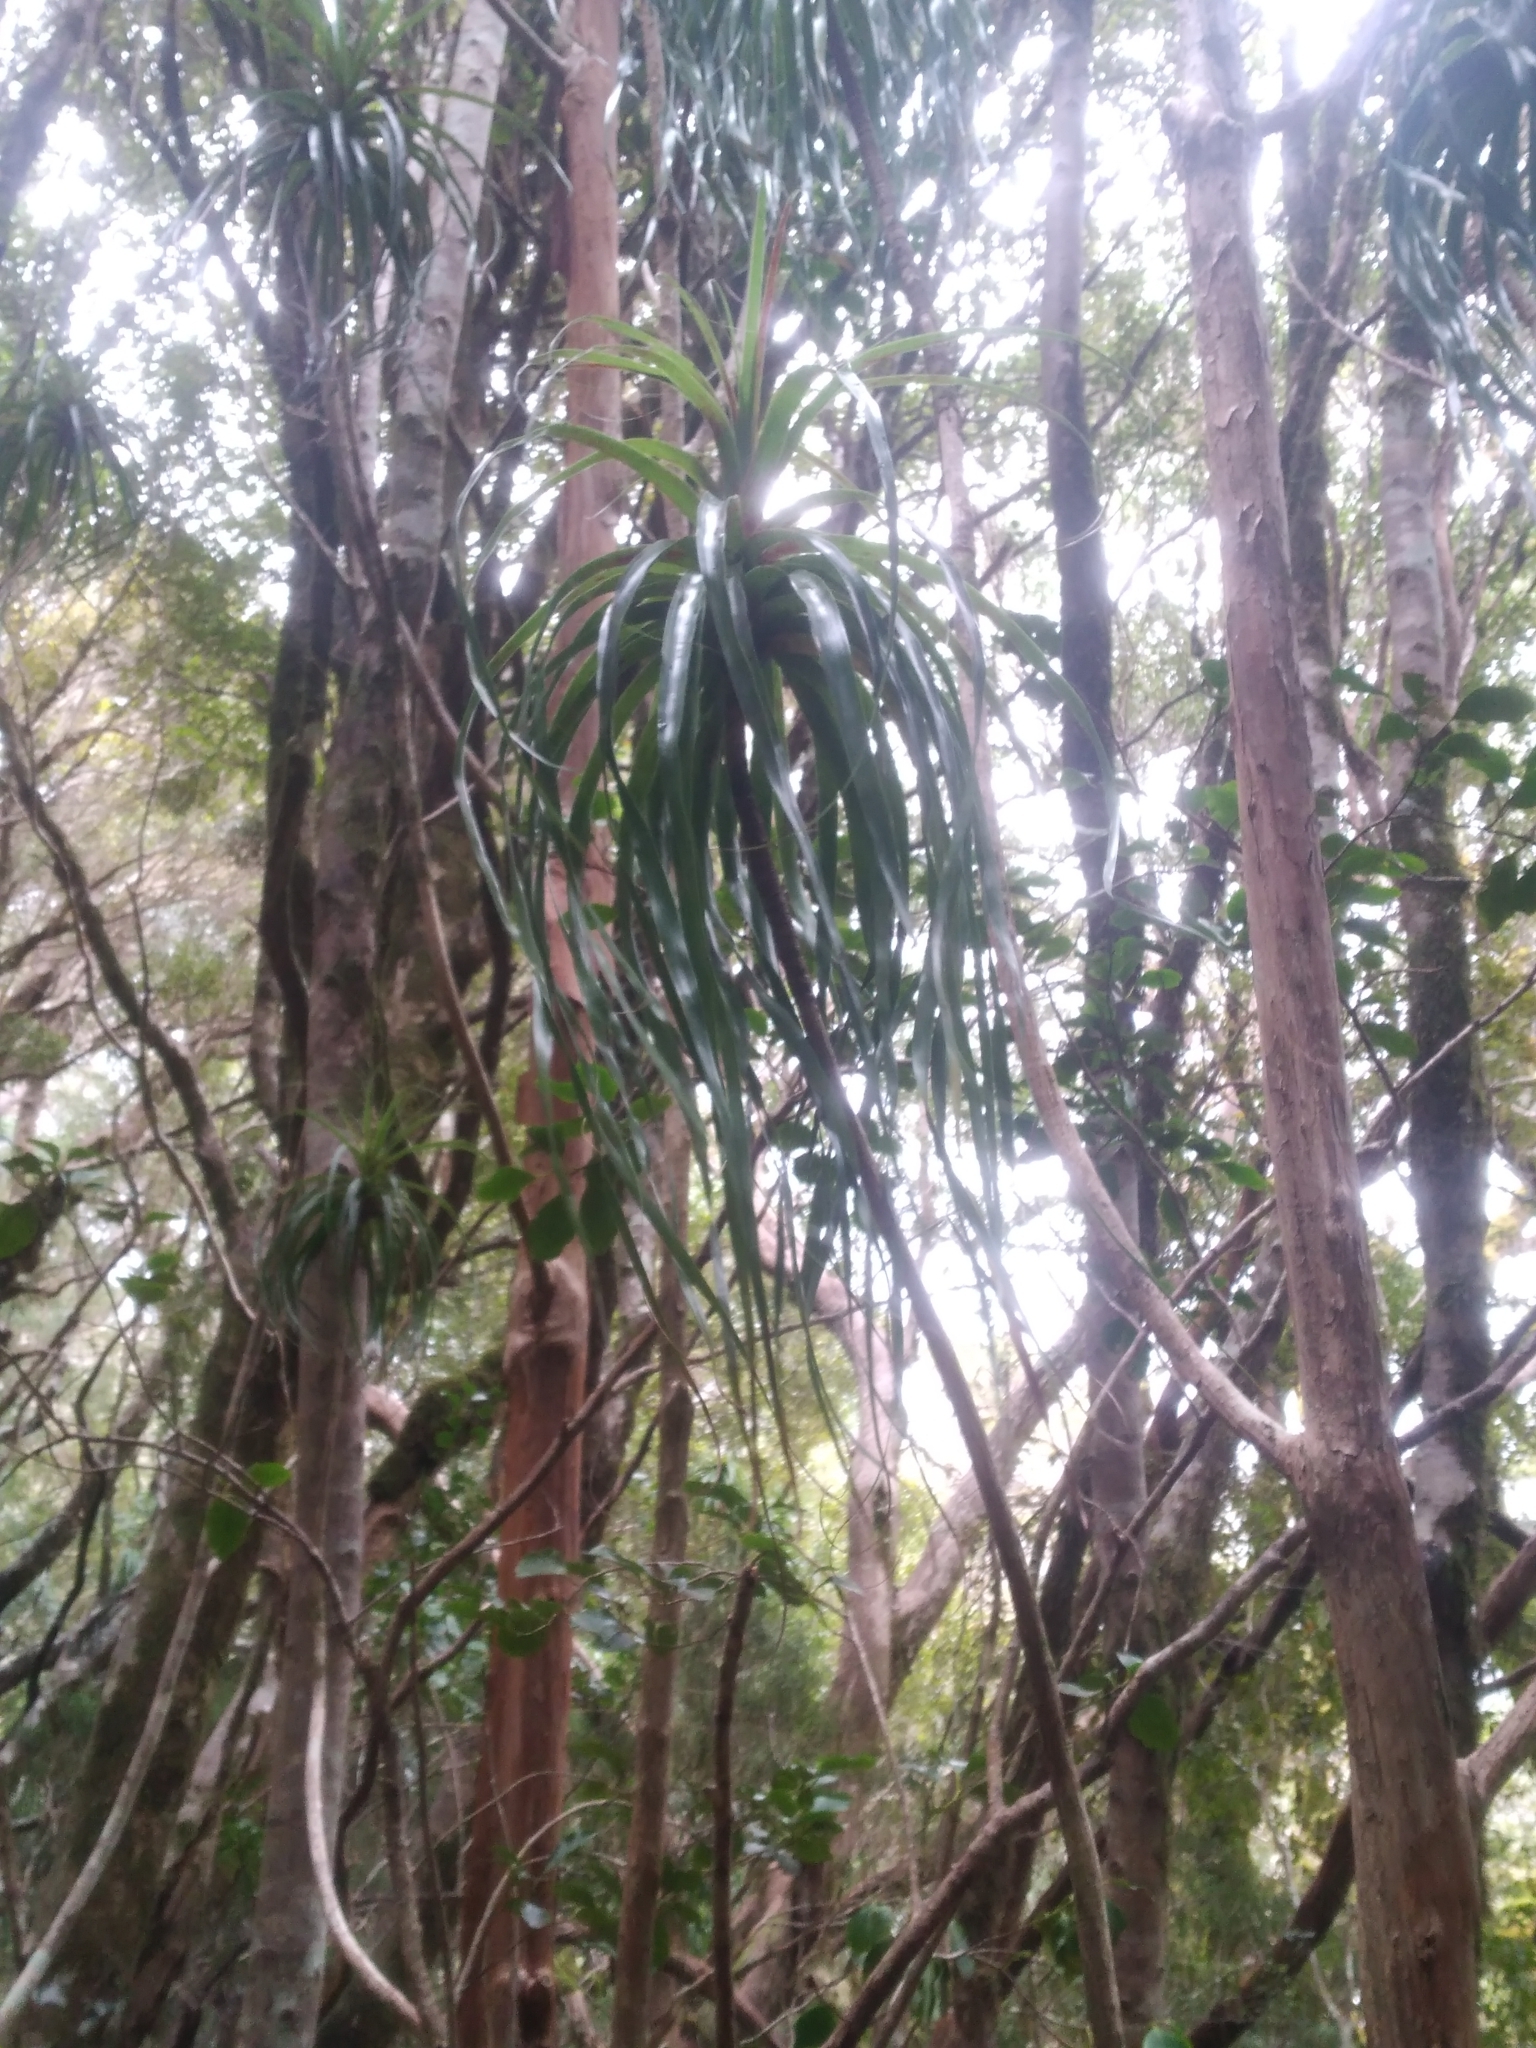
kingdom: Plantae
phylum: Tracheophyta
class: Magnoliopsida
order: Ericales
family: Ericaceae
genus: Dracophyllum
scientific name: Dracophyllum elegantissimum
